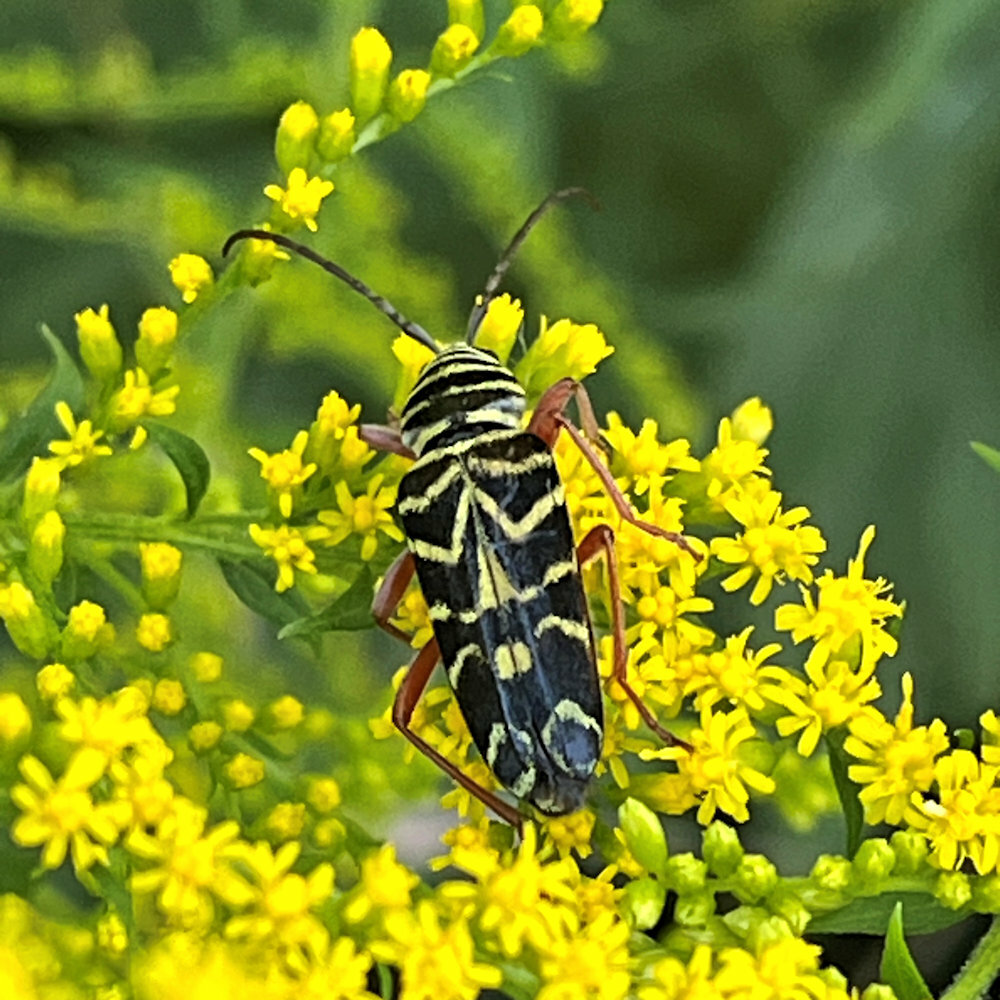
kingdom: Animalia
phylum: Arthropoda
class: Insecta
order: Coleoptera
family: Cerambycidae
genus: Megacyllene
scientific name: Megacyllene robiniae
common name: Locust borer
